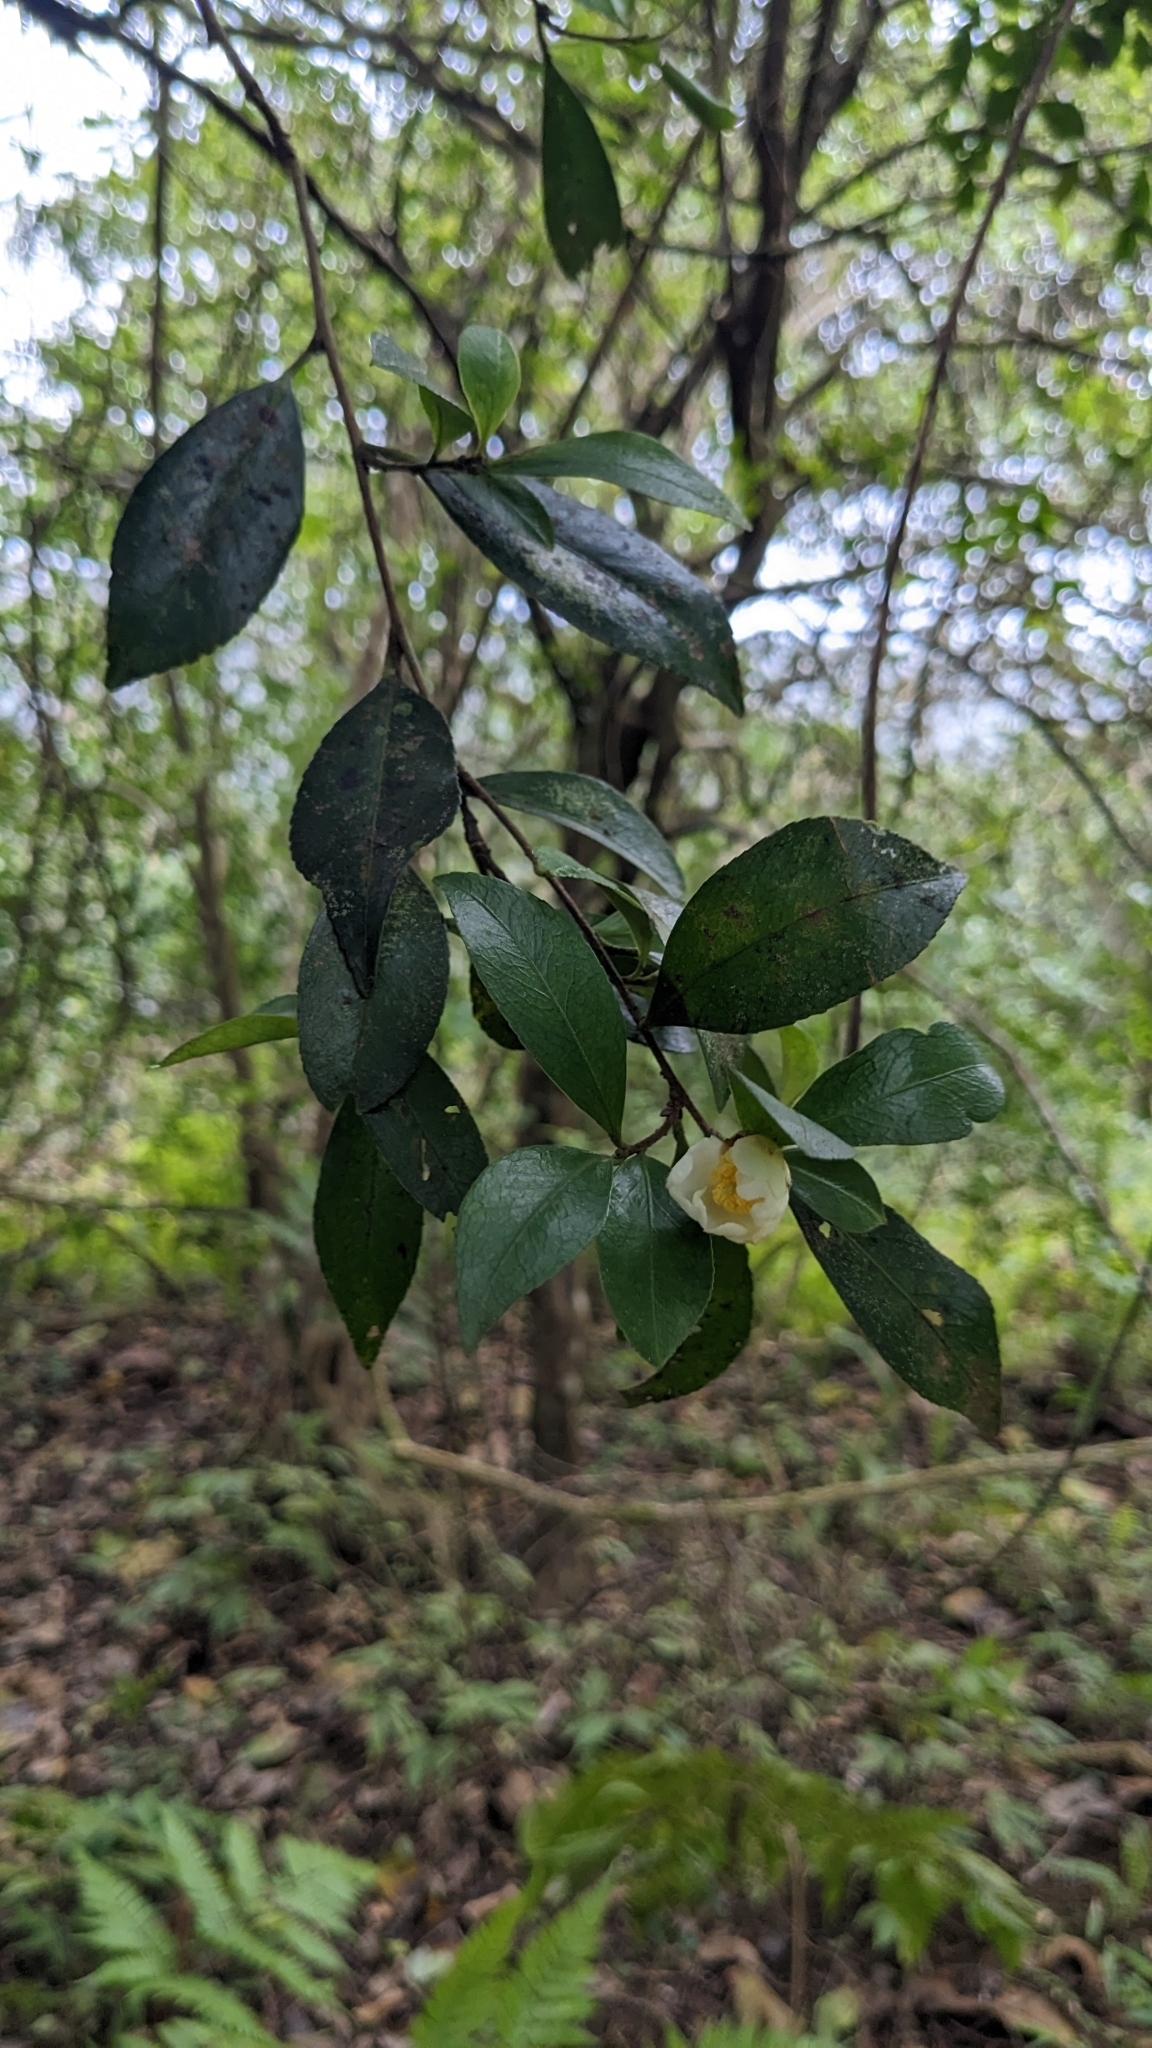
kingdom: Plantae
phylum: Tracheophyta
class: Magnoliopsida
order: Ericales
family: Theaceae
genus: Camellia
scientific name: Camellia brevistyla
